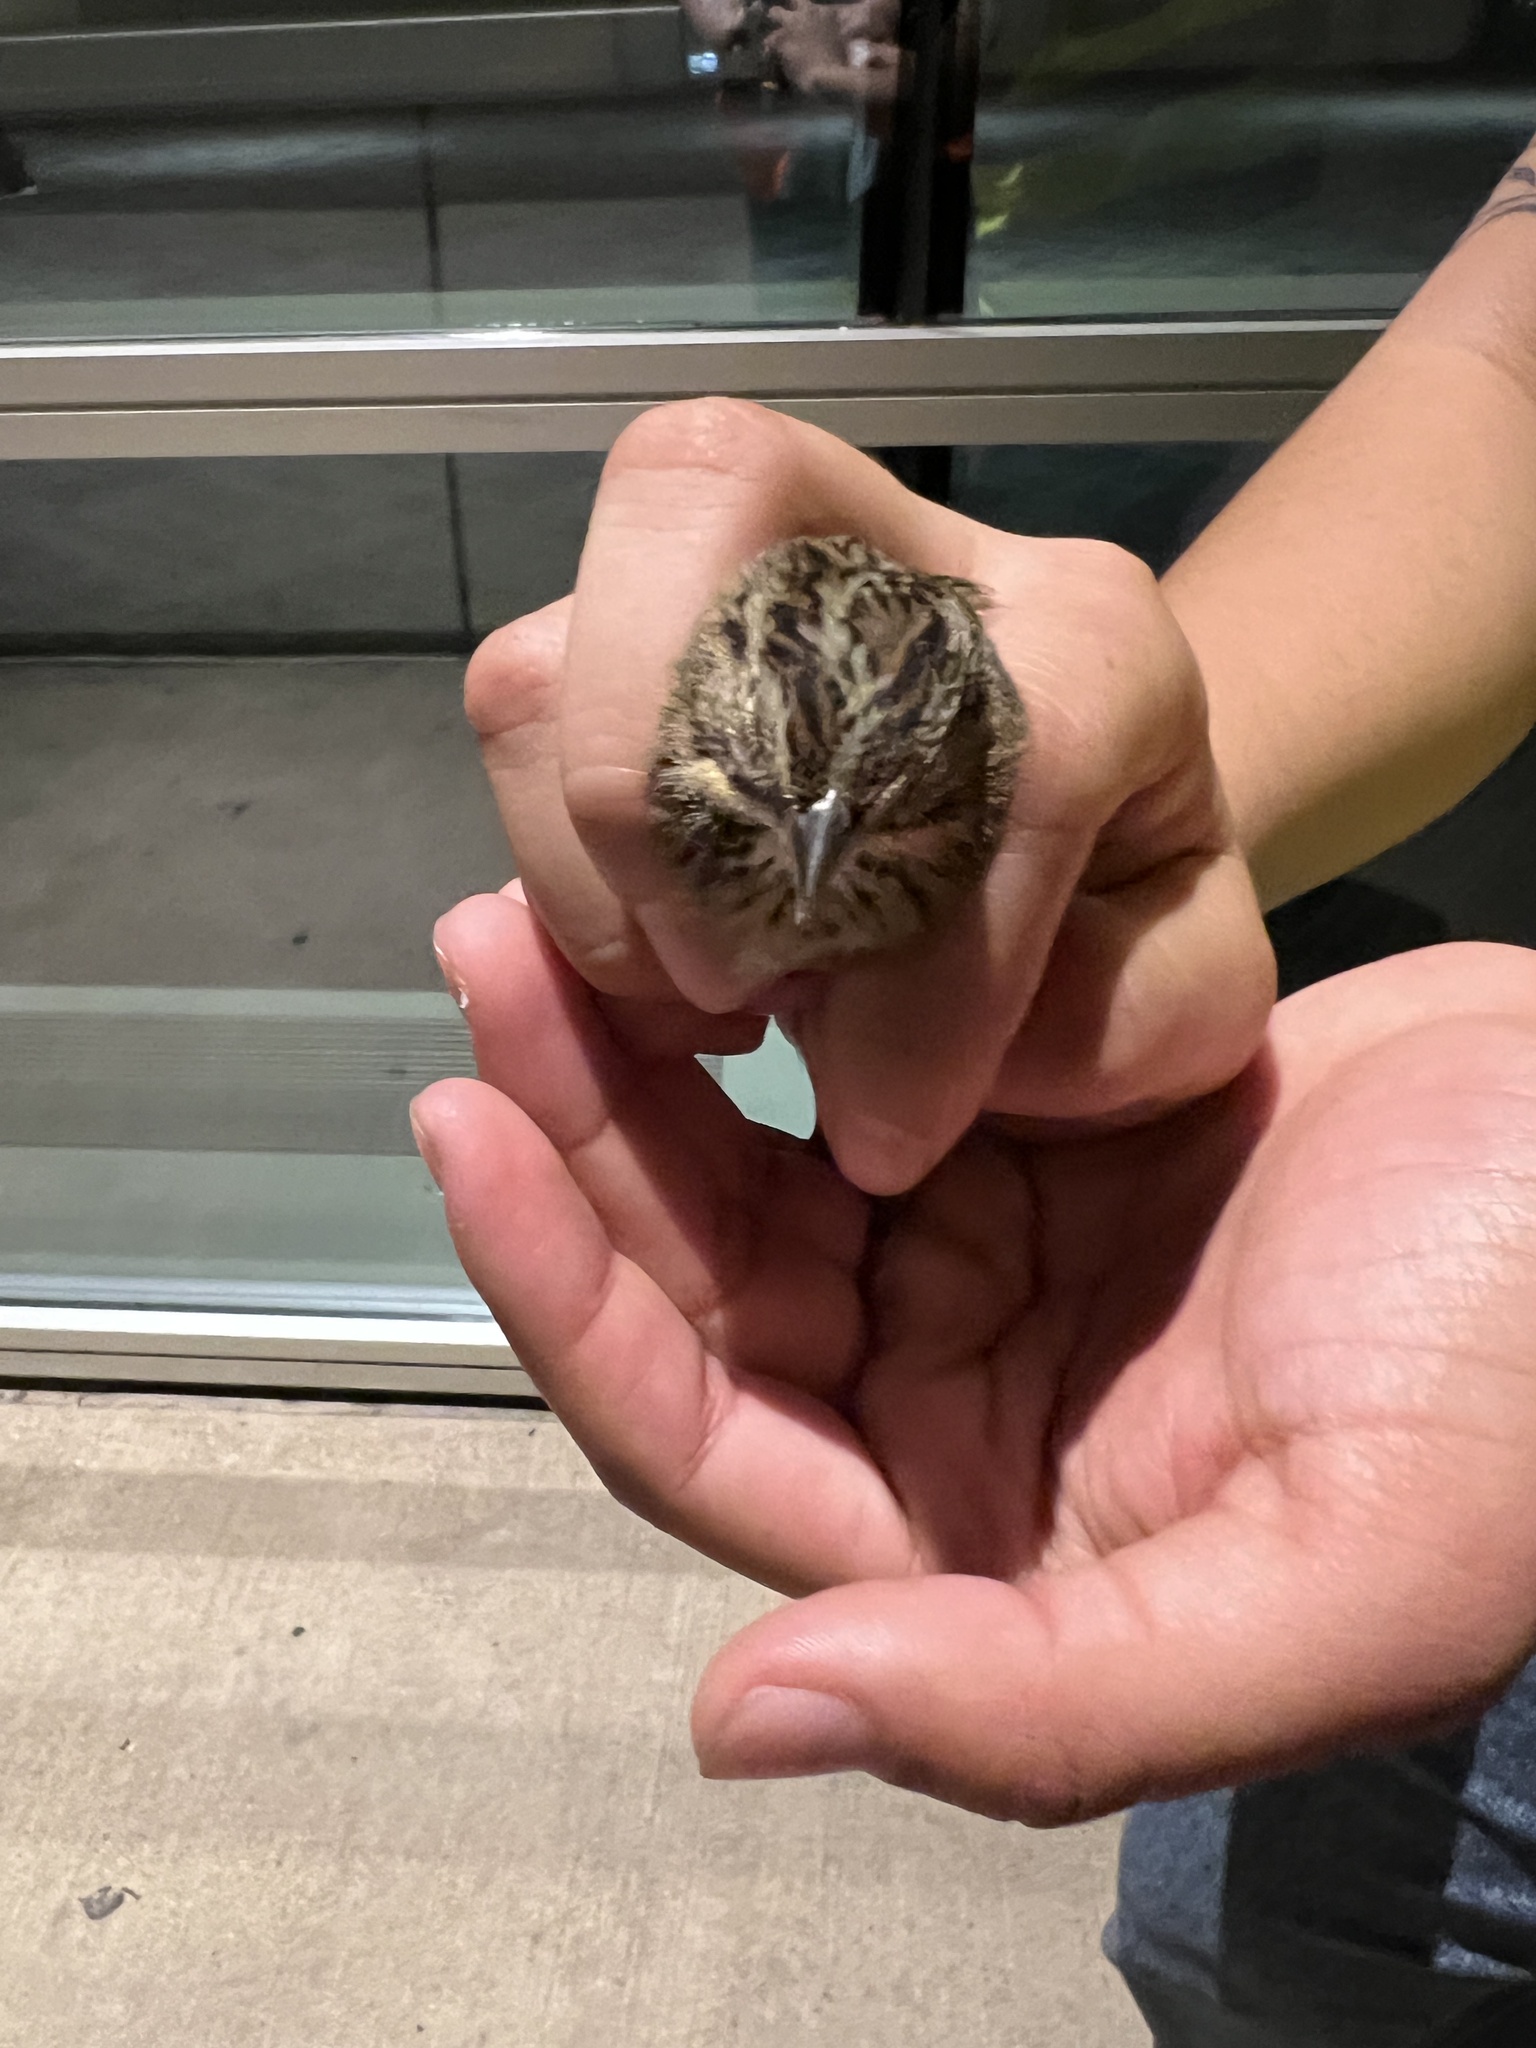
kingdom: Animalia
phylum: Chordata
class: Aves
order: Passeriformes
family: Passerellidae
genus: Melospiza
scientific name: Melospiza lincolnii
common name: Lincoln's sparrow
